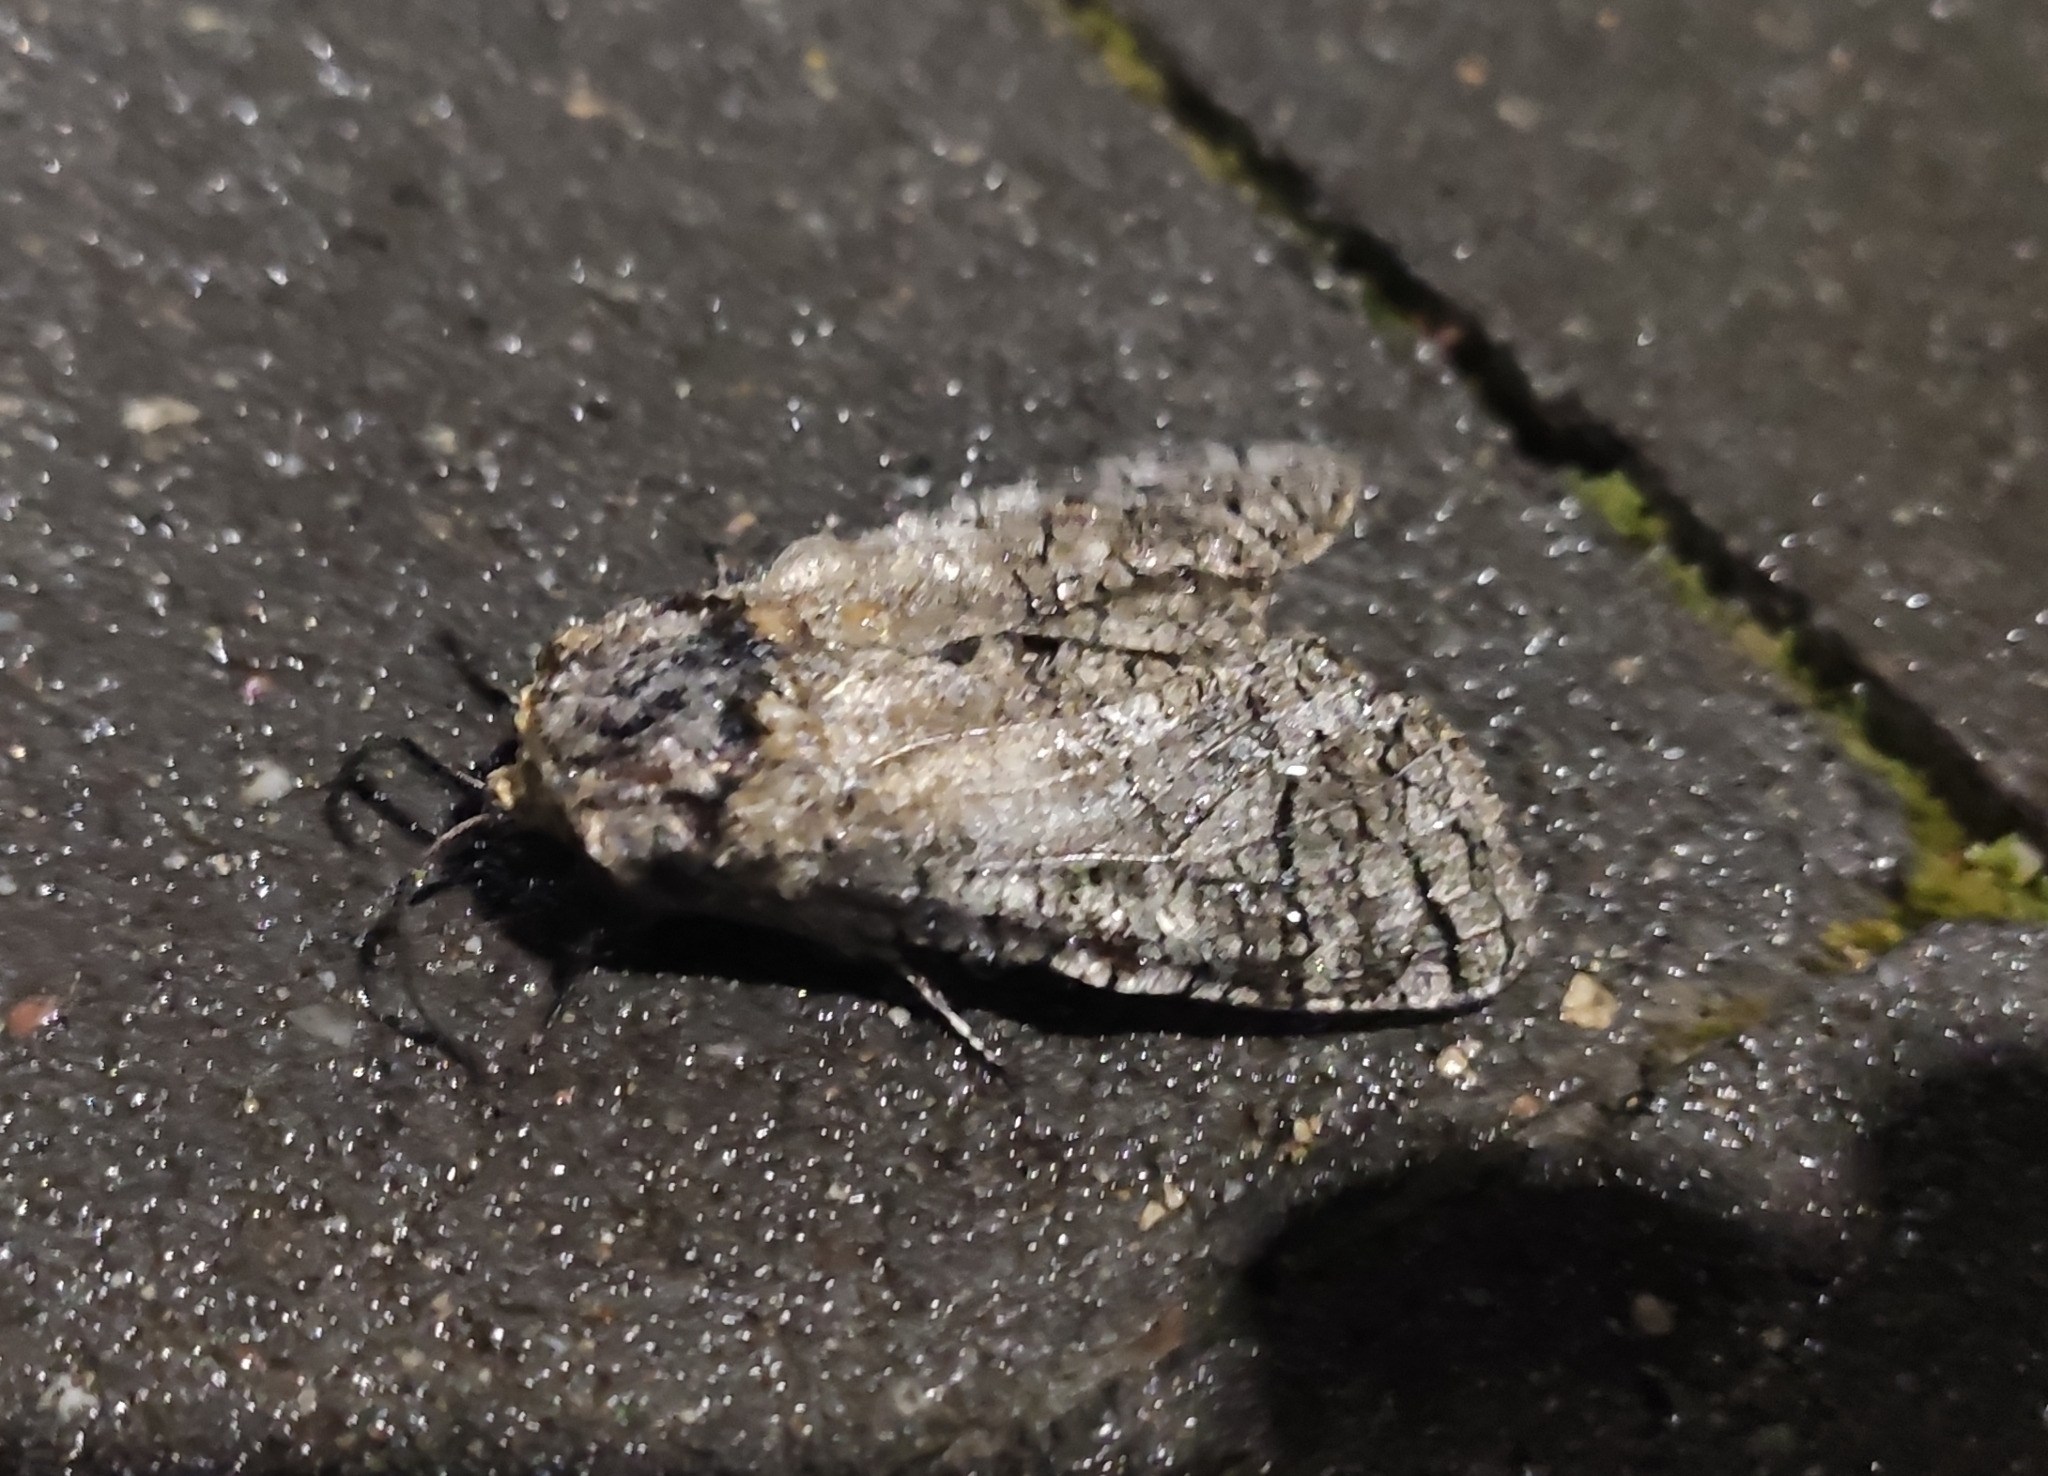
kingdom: Animalia
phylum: Arthropoda
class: Insecta
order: Lepidoptera
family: Cossidae
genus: Cossus
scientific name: Cossus cossus
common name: Goat moth
